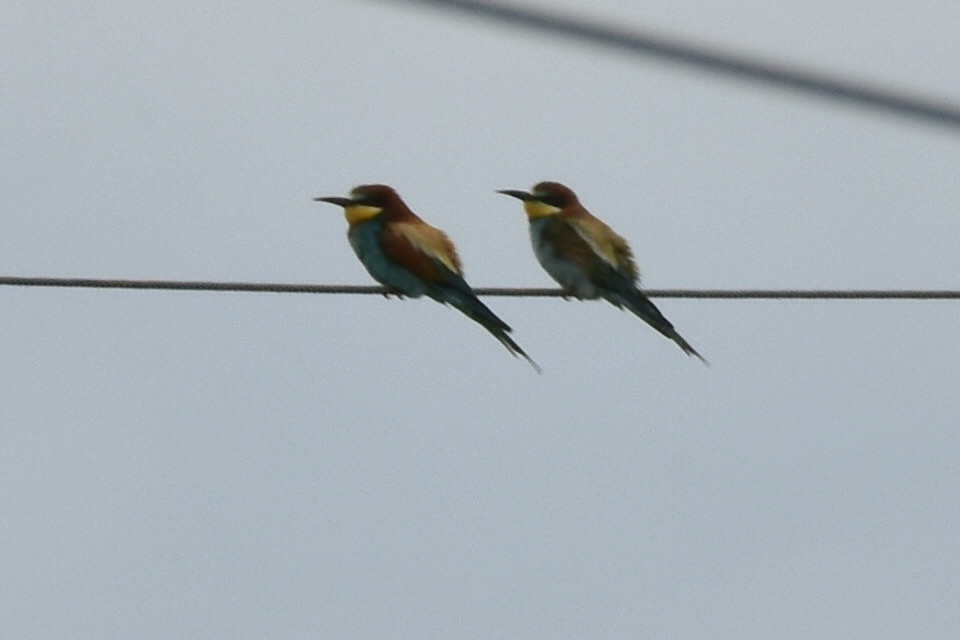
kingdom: Animalia
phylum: Chordata
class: Aves
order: Coraciiformes
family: Meropidae
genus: Merops
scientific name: Merops apiaster
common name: European bee-eater
